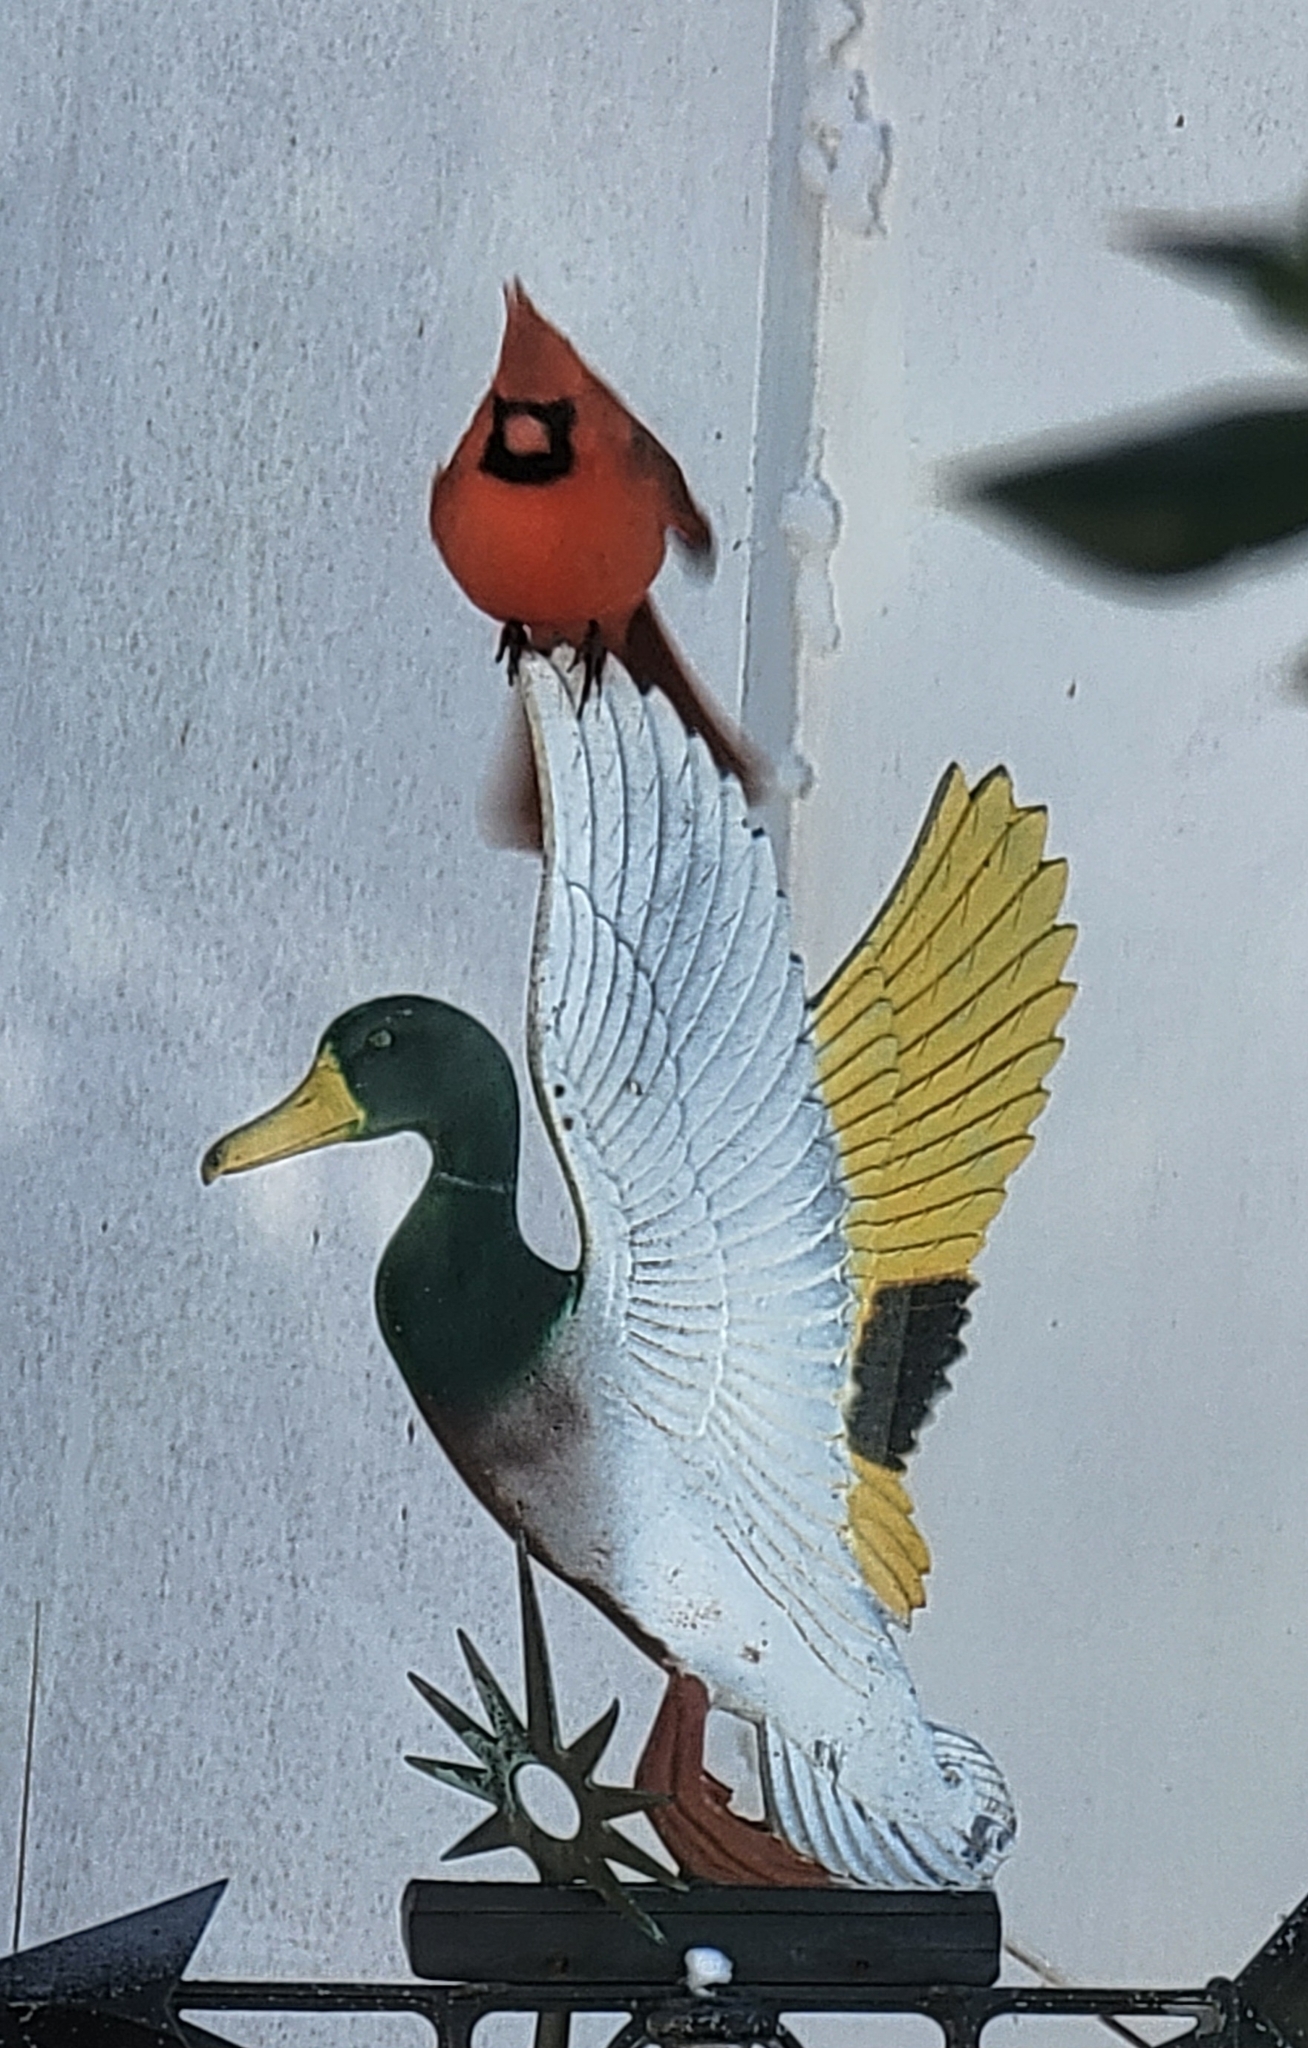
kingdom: Animalia
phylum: Chordata
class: Aves
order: Passeriformes
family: Cardinalidae
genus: Cardinalis
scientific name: Cardinalis cardinalis
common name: Northern cardinal
